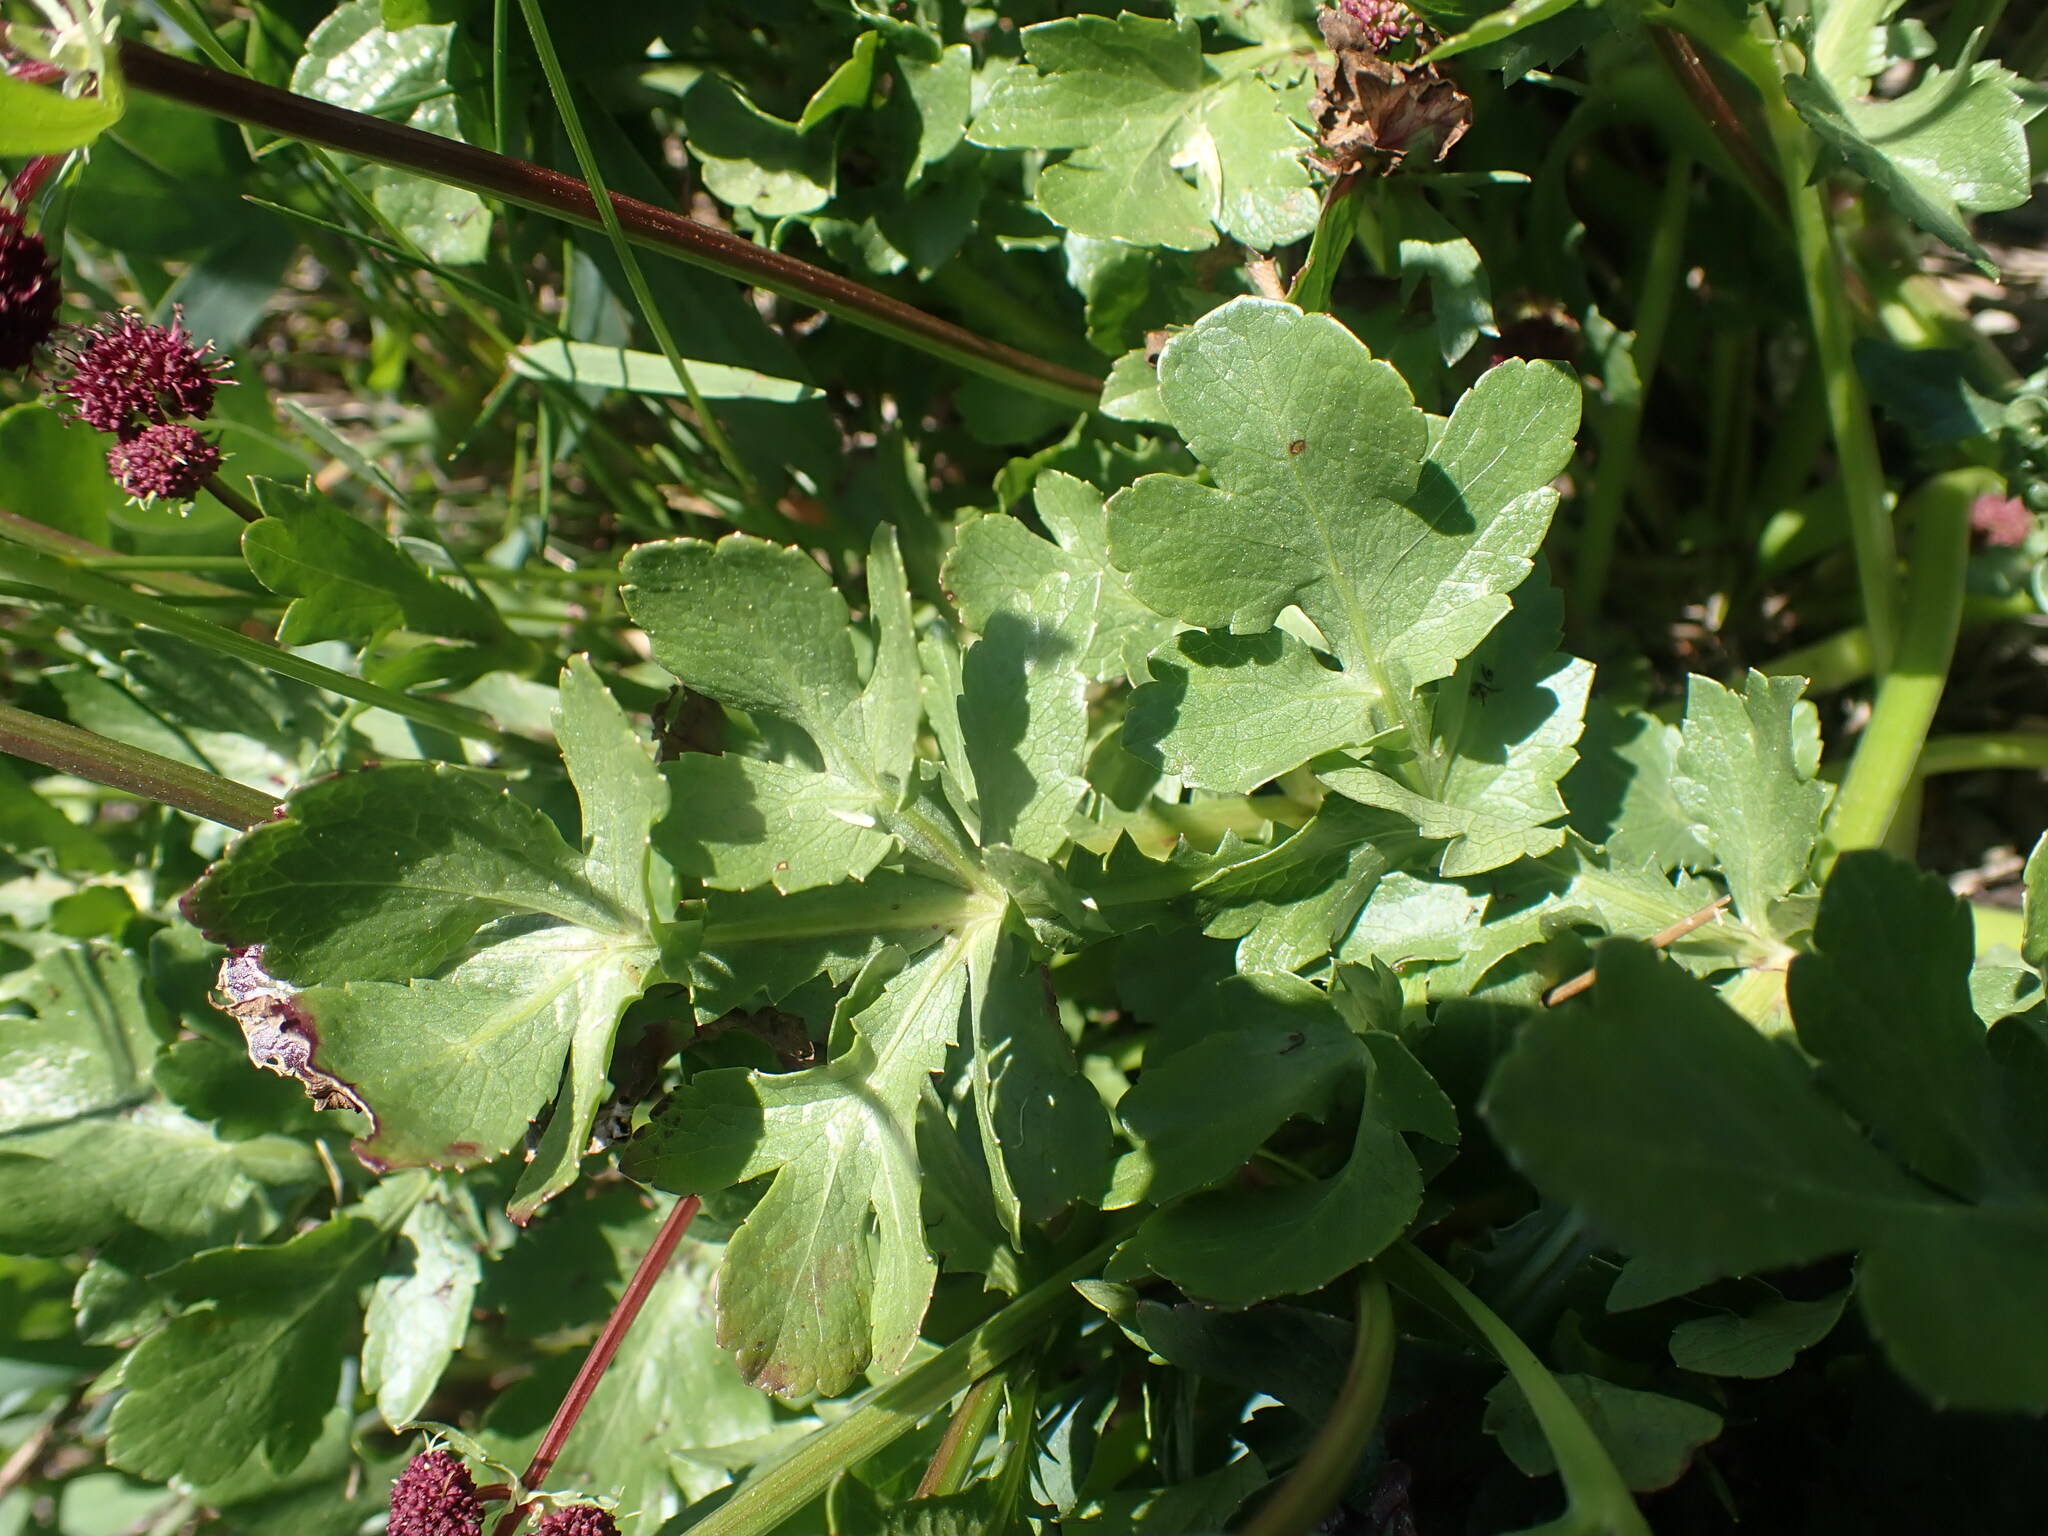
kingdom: Plantae
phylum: Tracheophyta
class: Magnoliopsida
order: Apiales
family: Apiaceae
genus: Sanicula
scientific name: Sanicula bipinnatifida
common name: Shoe-buttons
